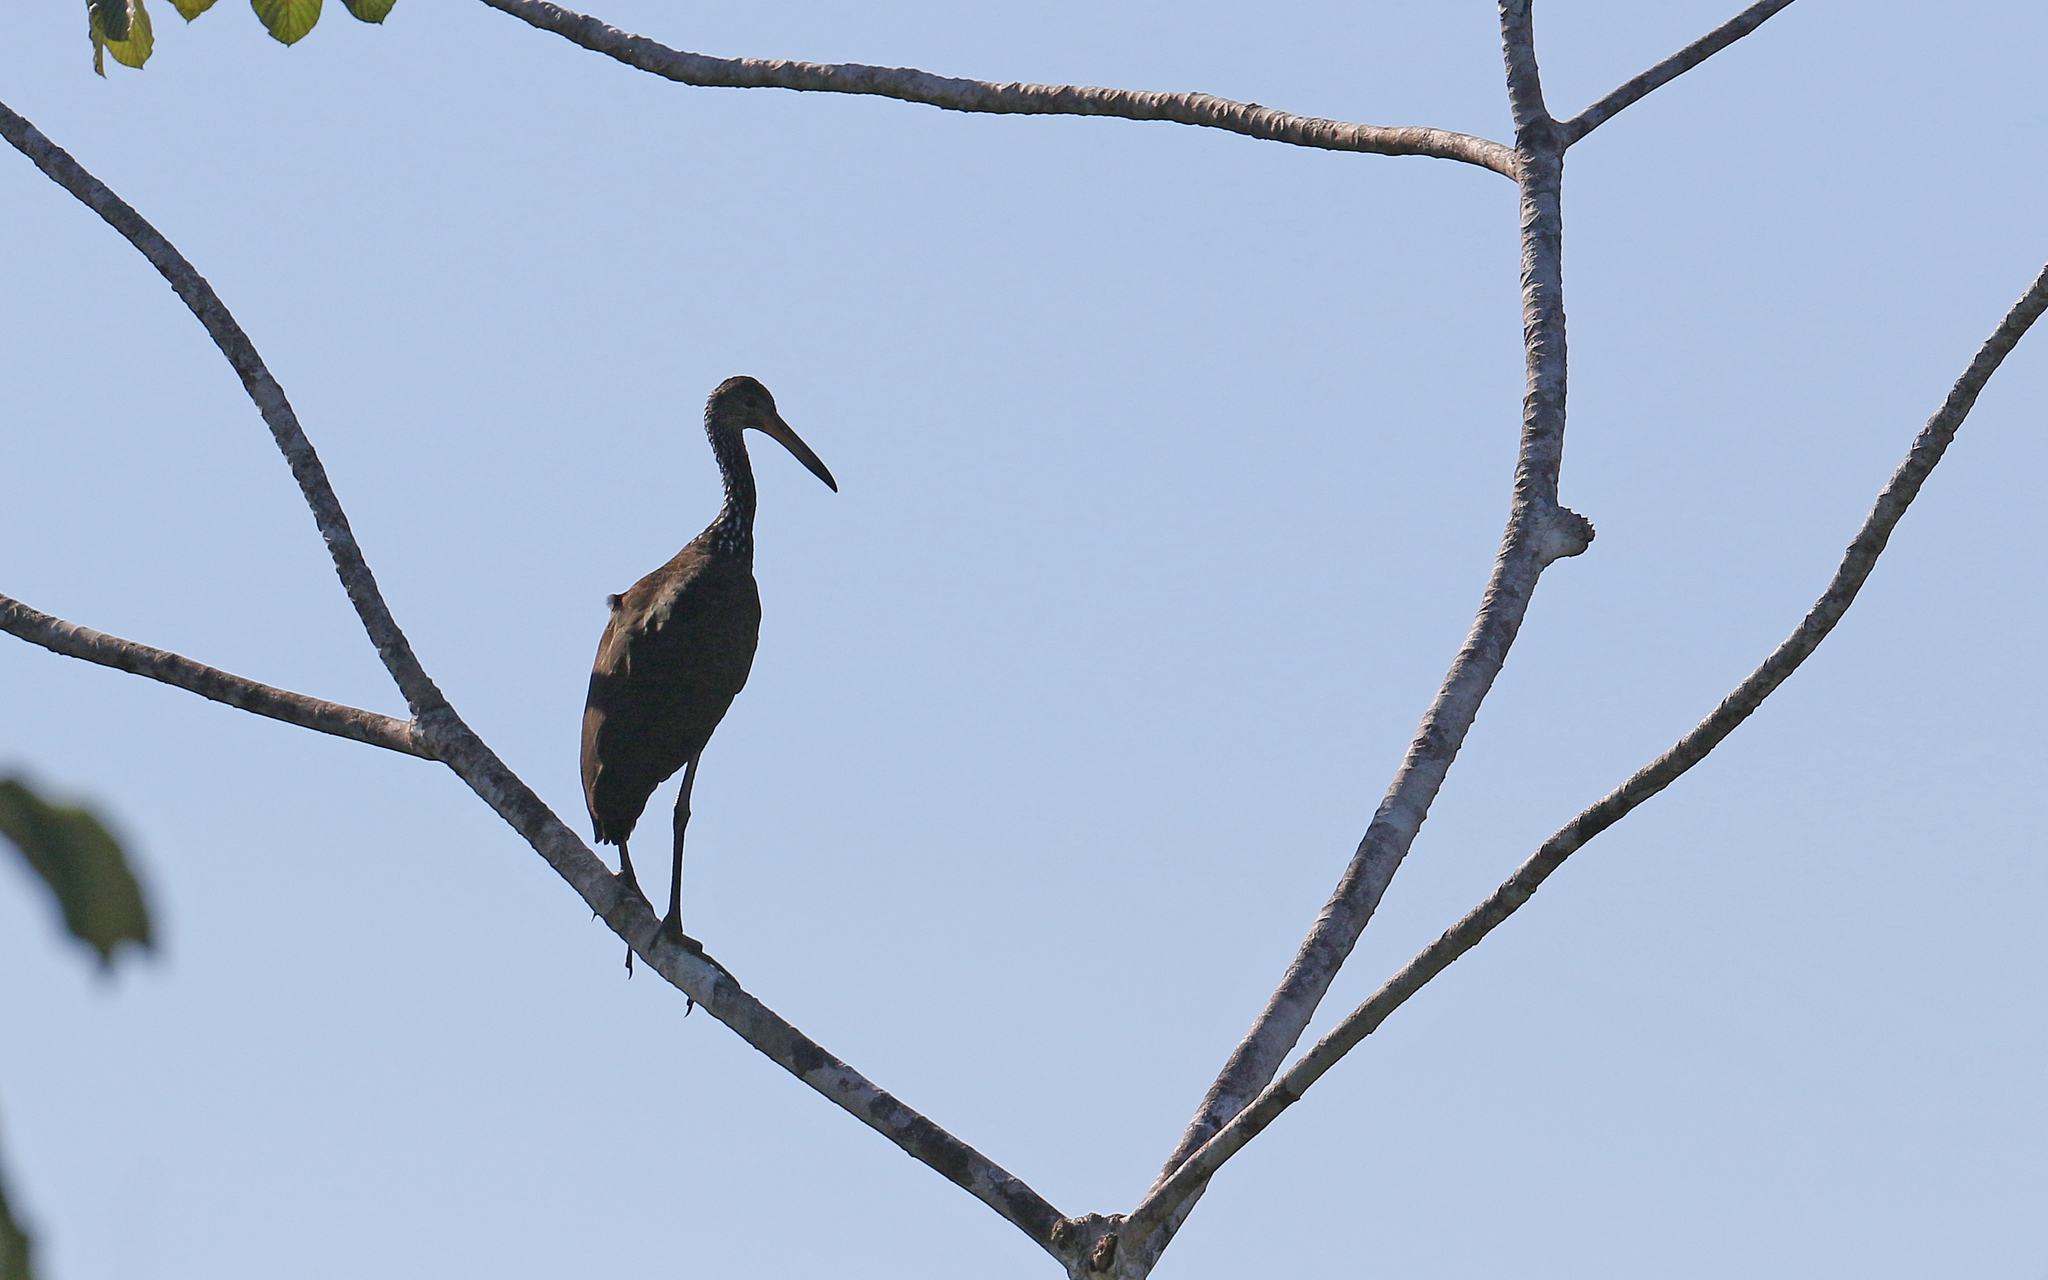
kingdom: Animalia
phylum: Chordata
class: Aves
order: Gruiformes
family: Aramidae
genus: Aramus
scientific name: Aramus guarauna
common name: Limpkin
